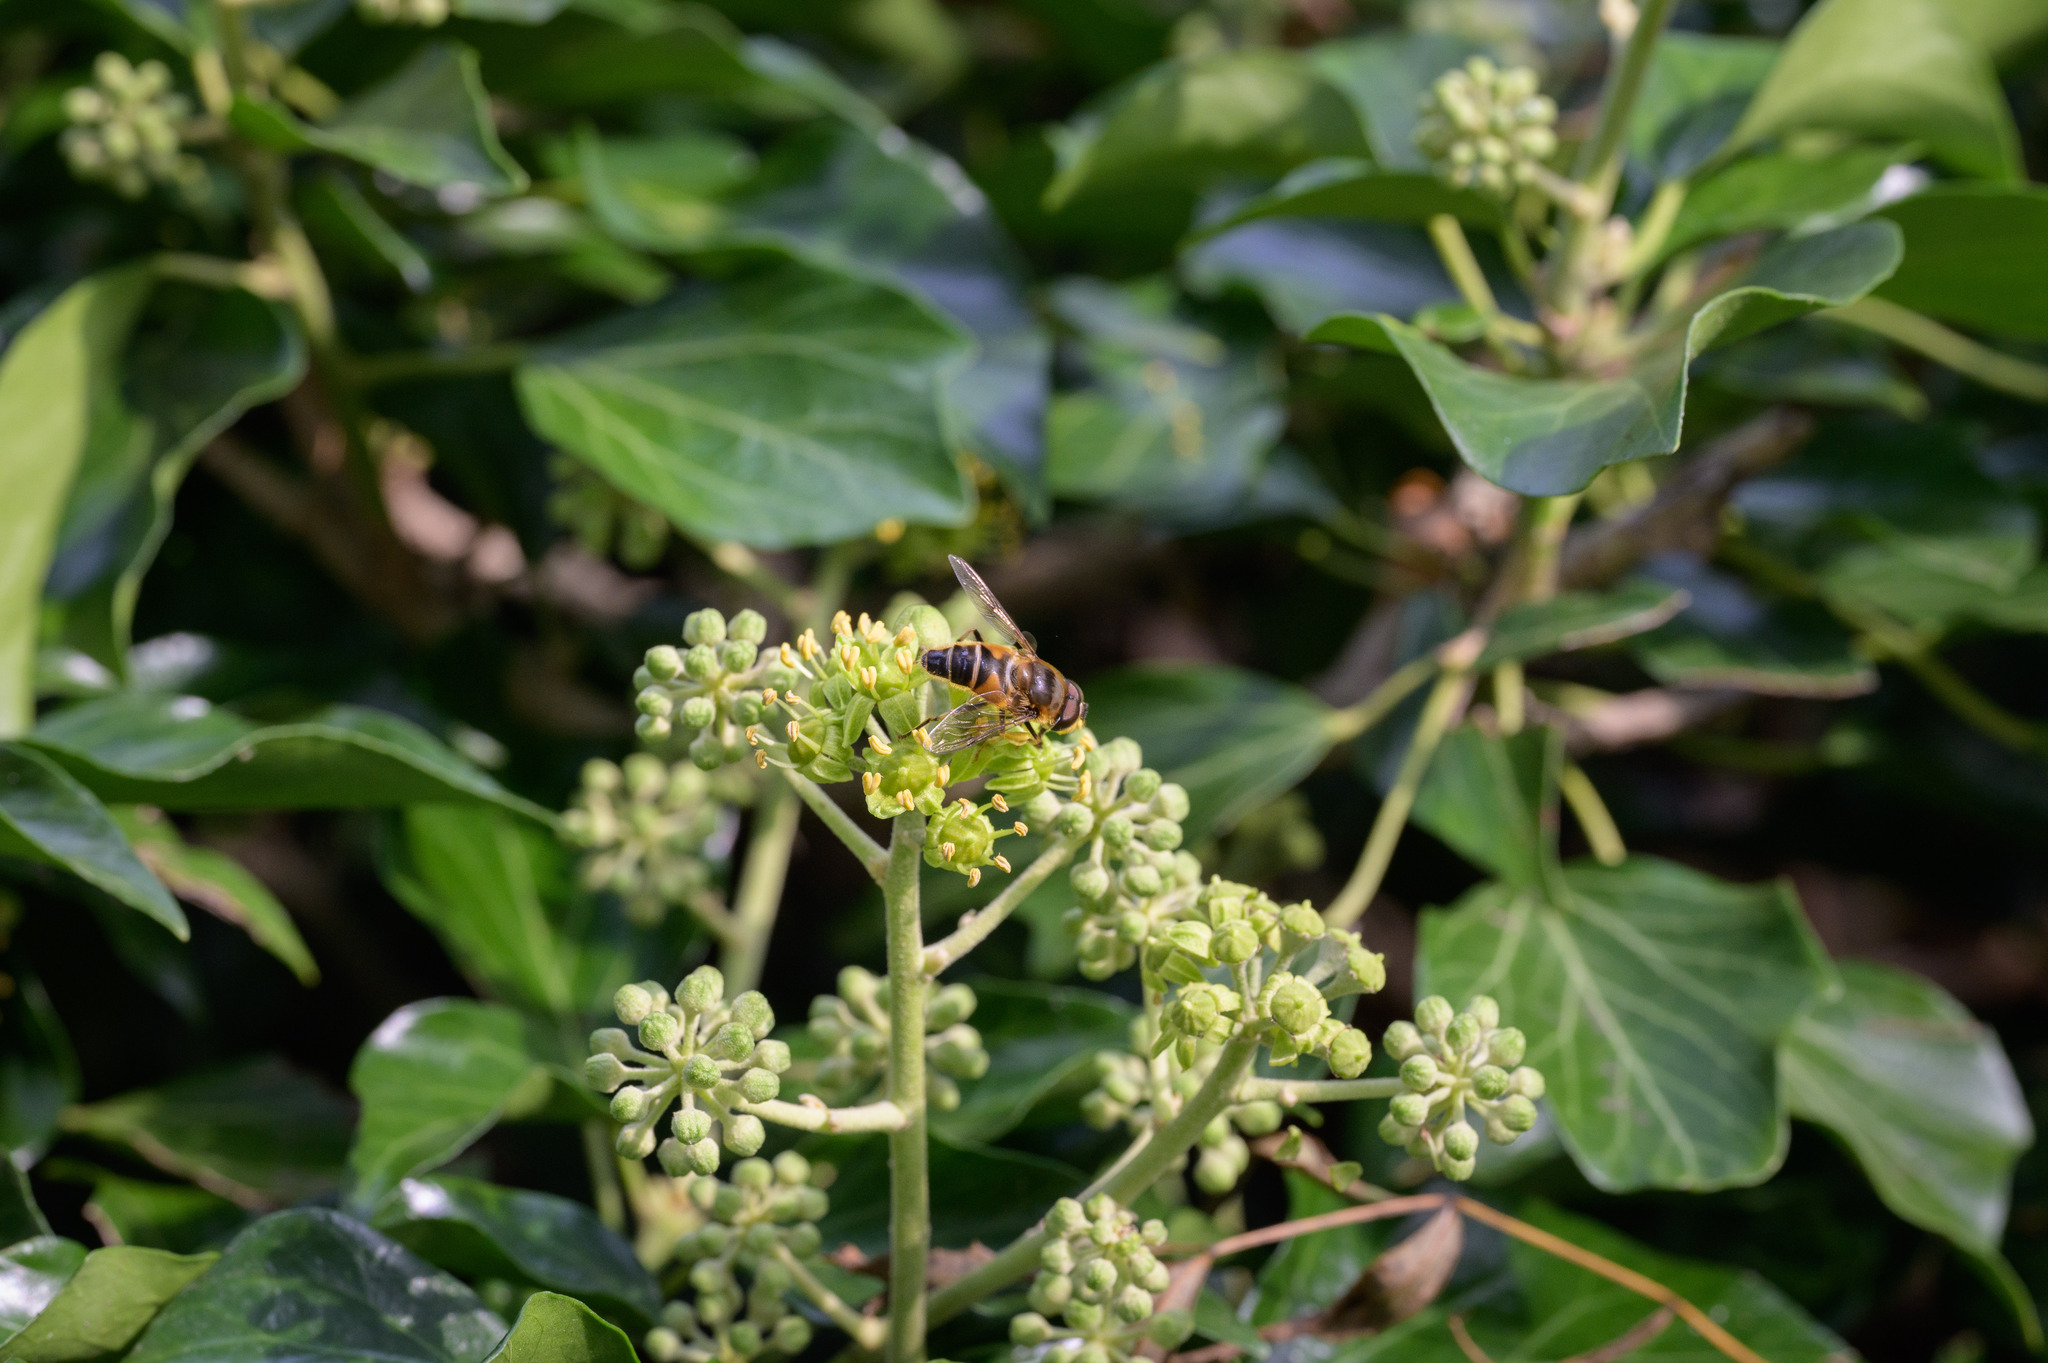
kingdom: Animalia
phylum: Arthropoda
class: Insecta
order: Diptera
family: Syrphidae
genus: Eristalis
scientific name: Eristalis pertinax
